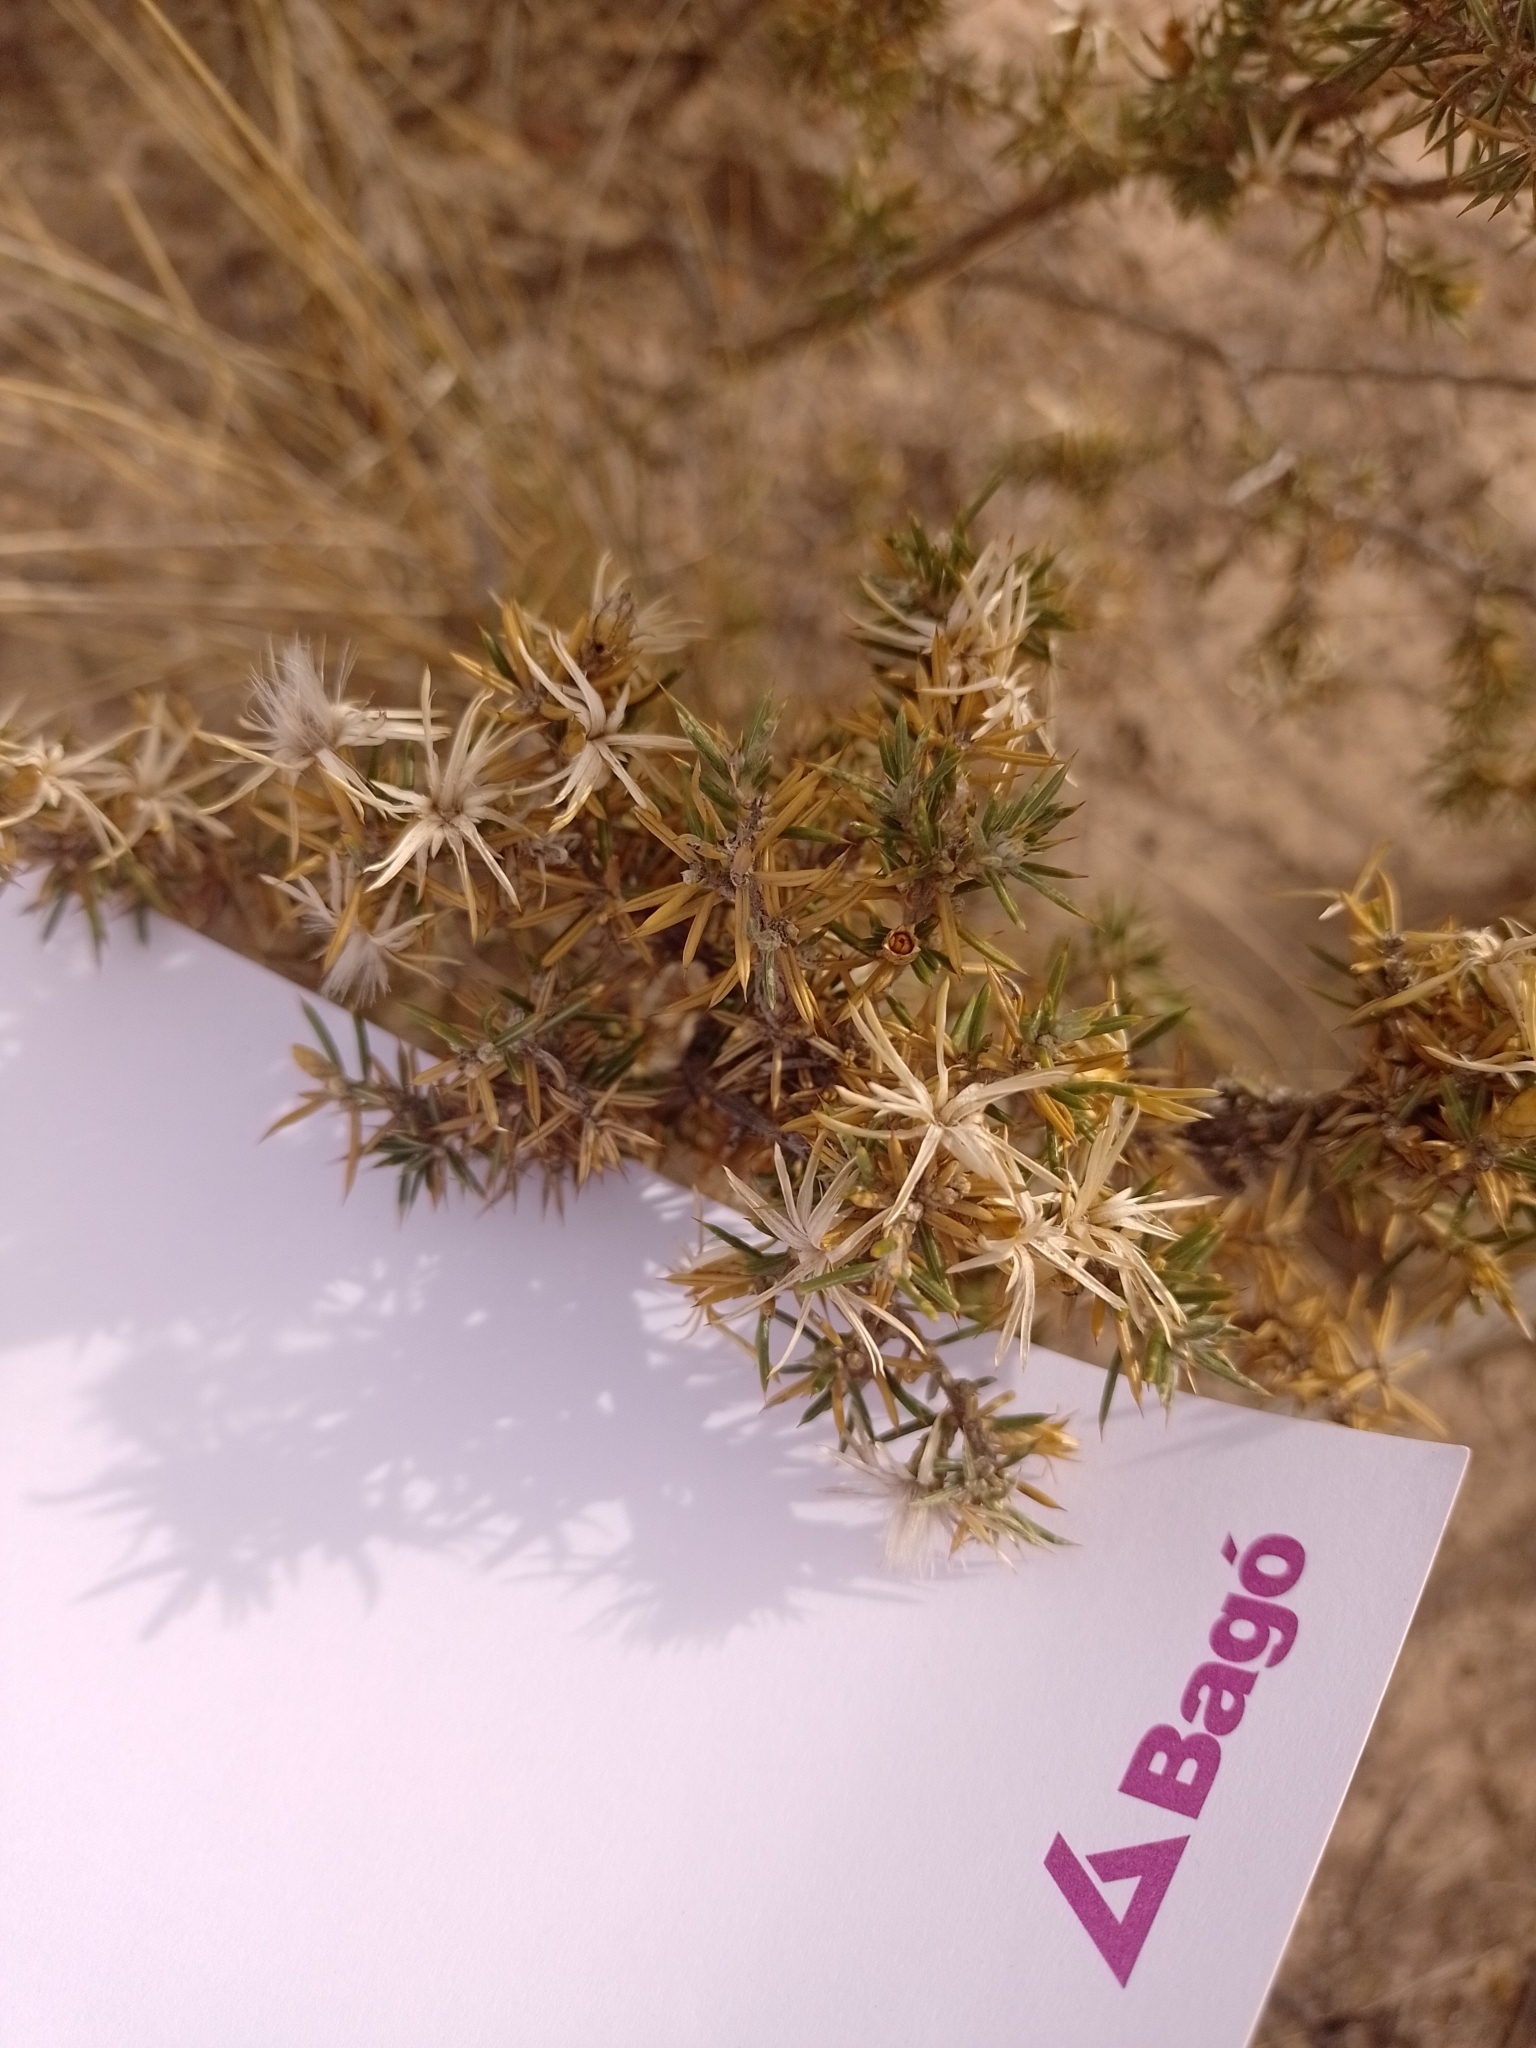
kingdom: Plantae
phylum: Tracheophyta
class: Magnoliopsida
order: Asterales
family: Asteraceae
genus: Chuquiraga
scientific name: Chuquiraga erinacea
